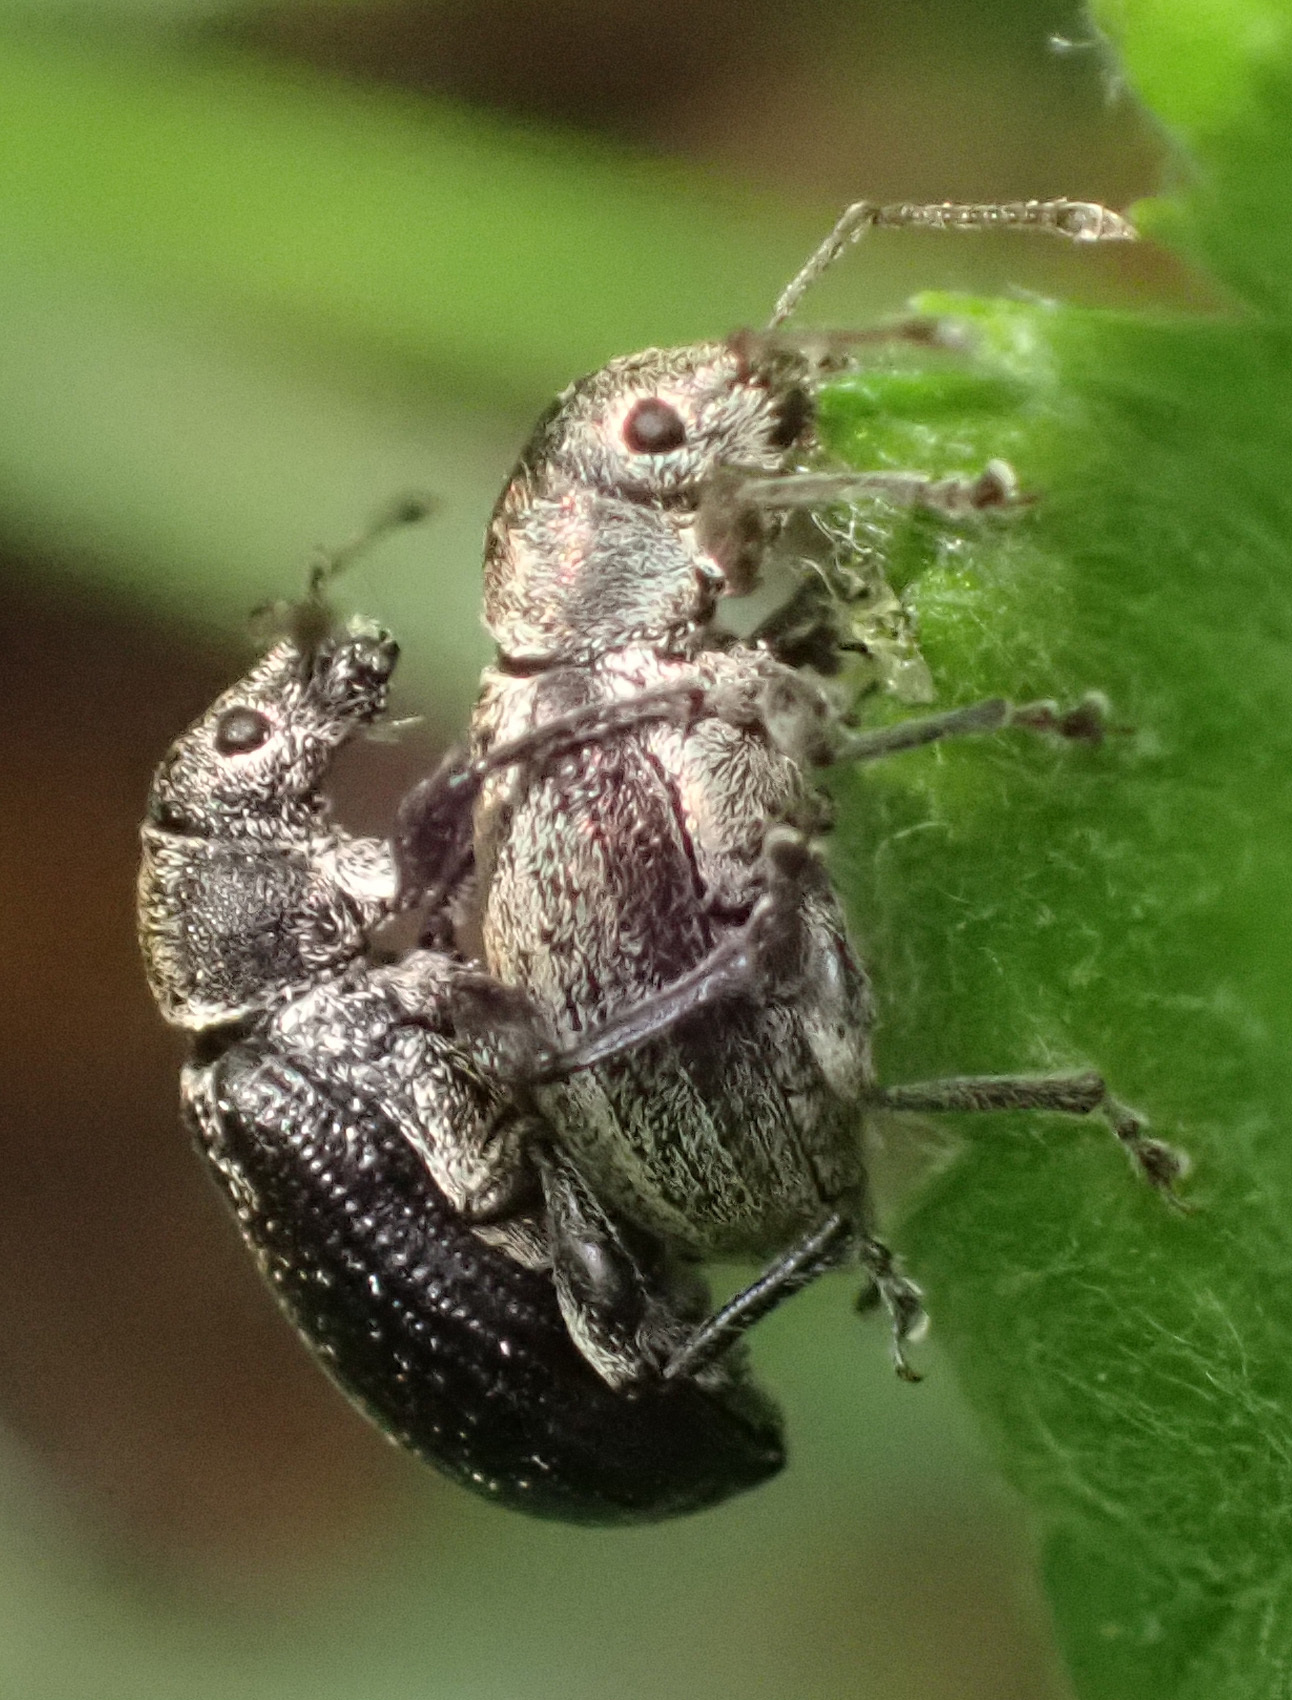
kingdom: Animalia
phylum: Arthropoda
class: Insecta
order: Coleoptera
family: Curculionidae
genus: Phyllobius
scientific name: Phyllobius pyri
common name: Common leaf weevil
